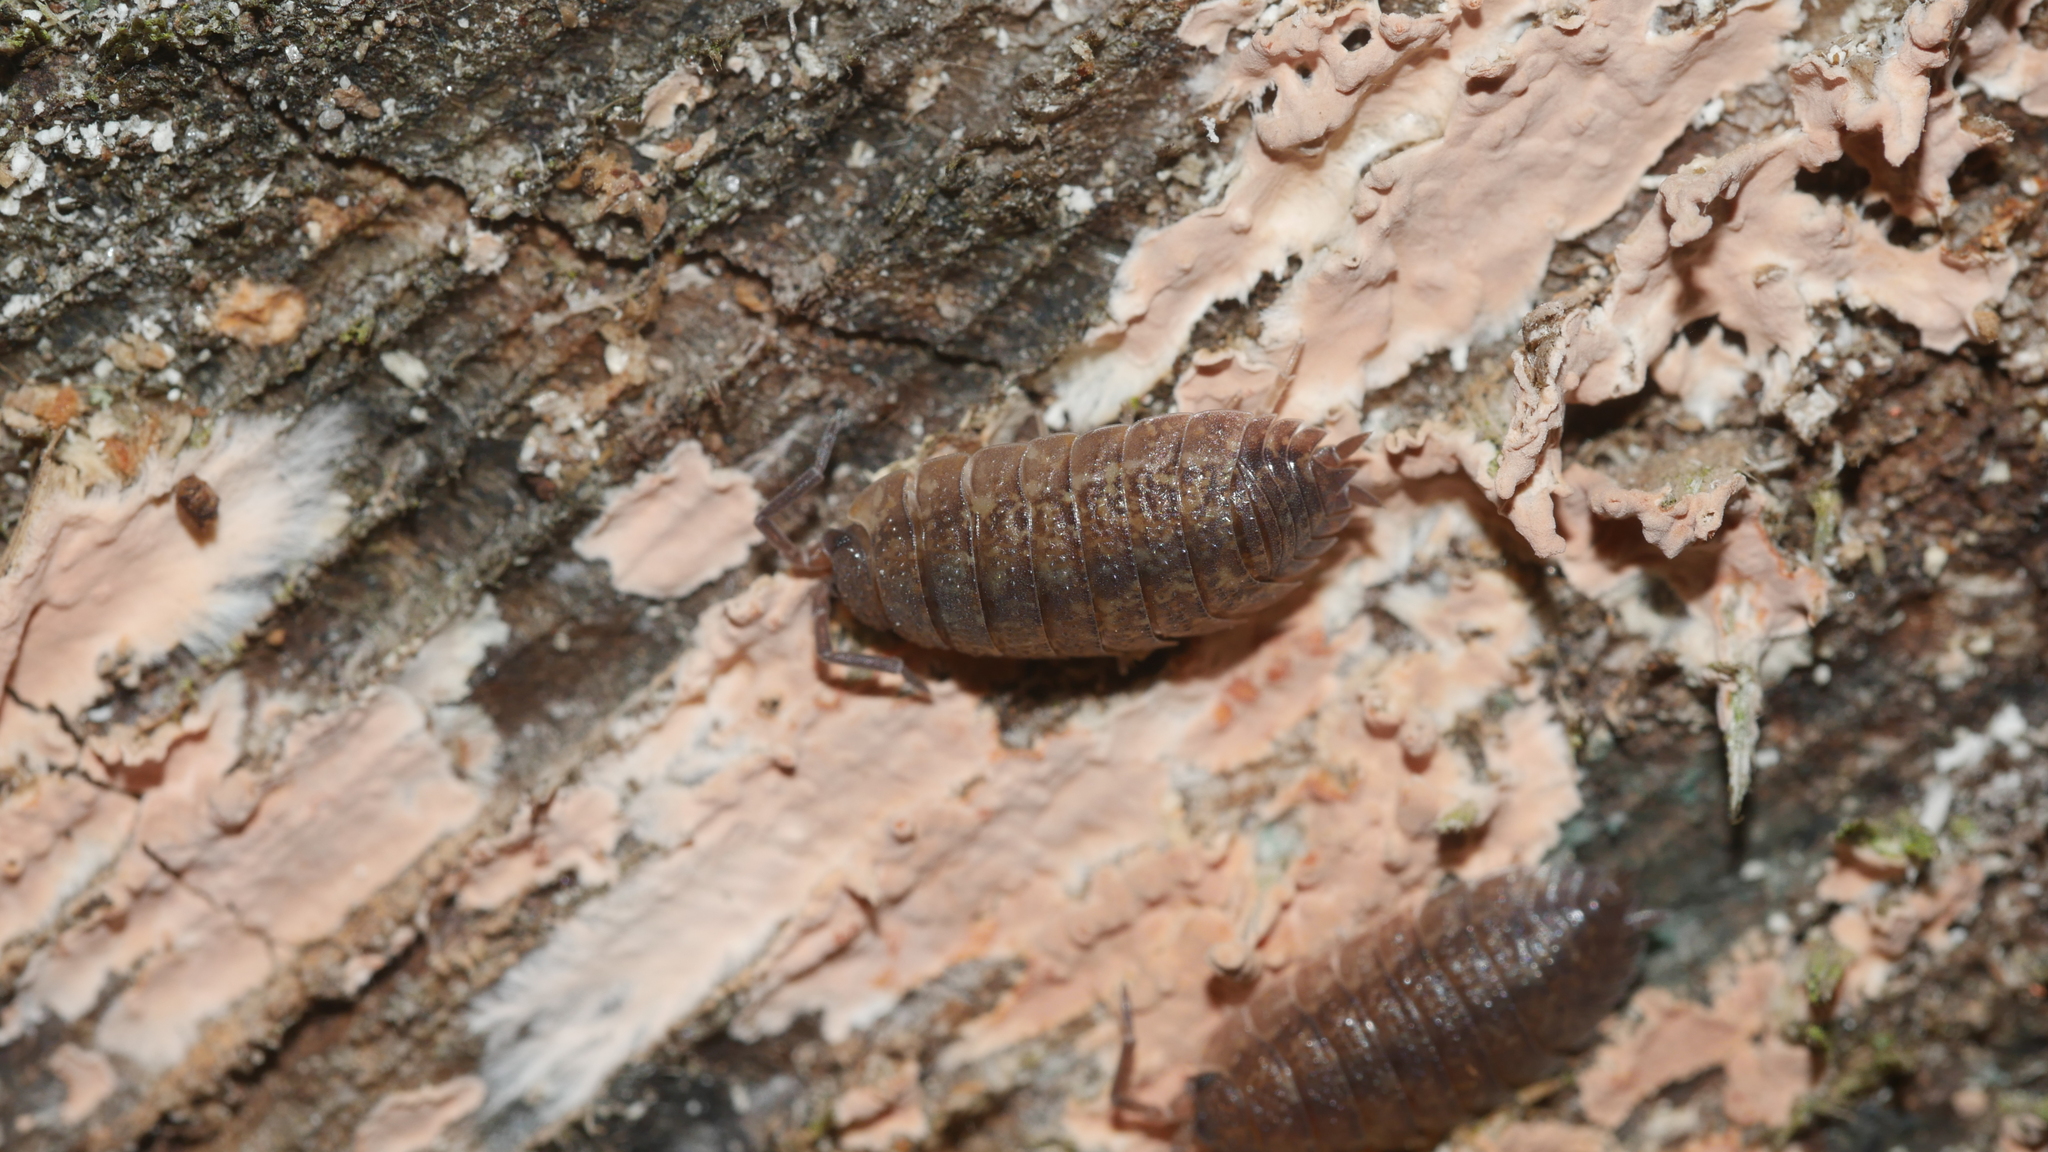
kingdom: Animalia
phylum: Arthropoda
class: Malacostraca
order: Isopoda
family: Porcellionidae
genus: Porcellio
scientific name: Porcellio scaber
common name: Common rough woodlouse
